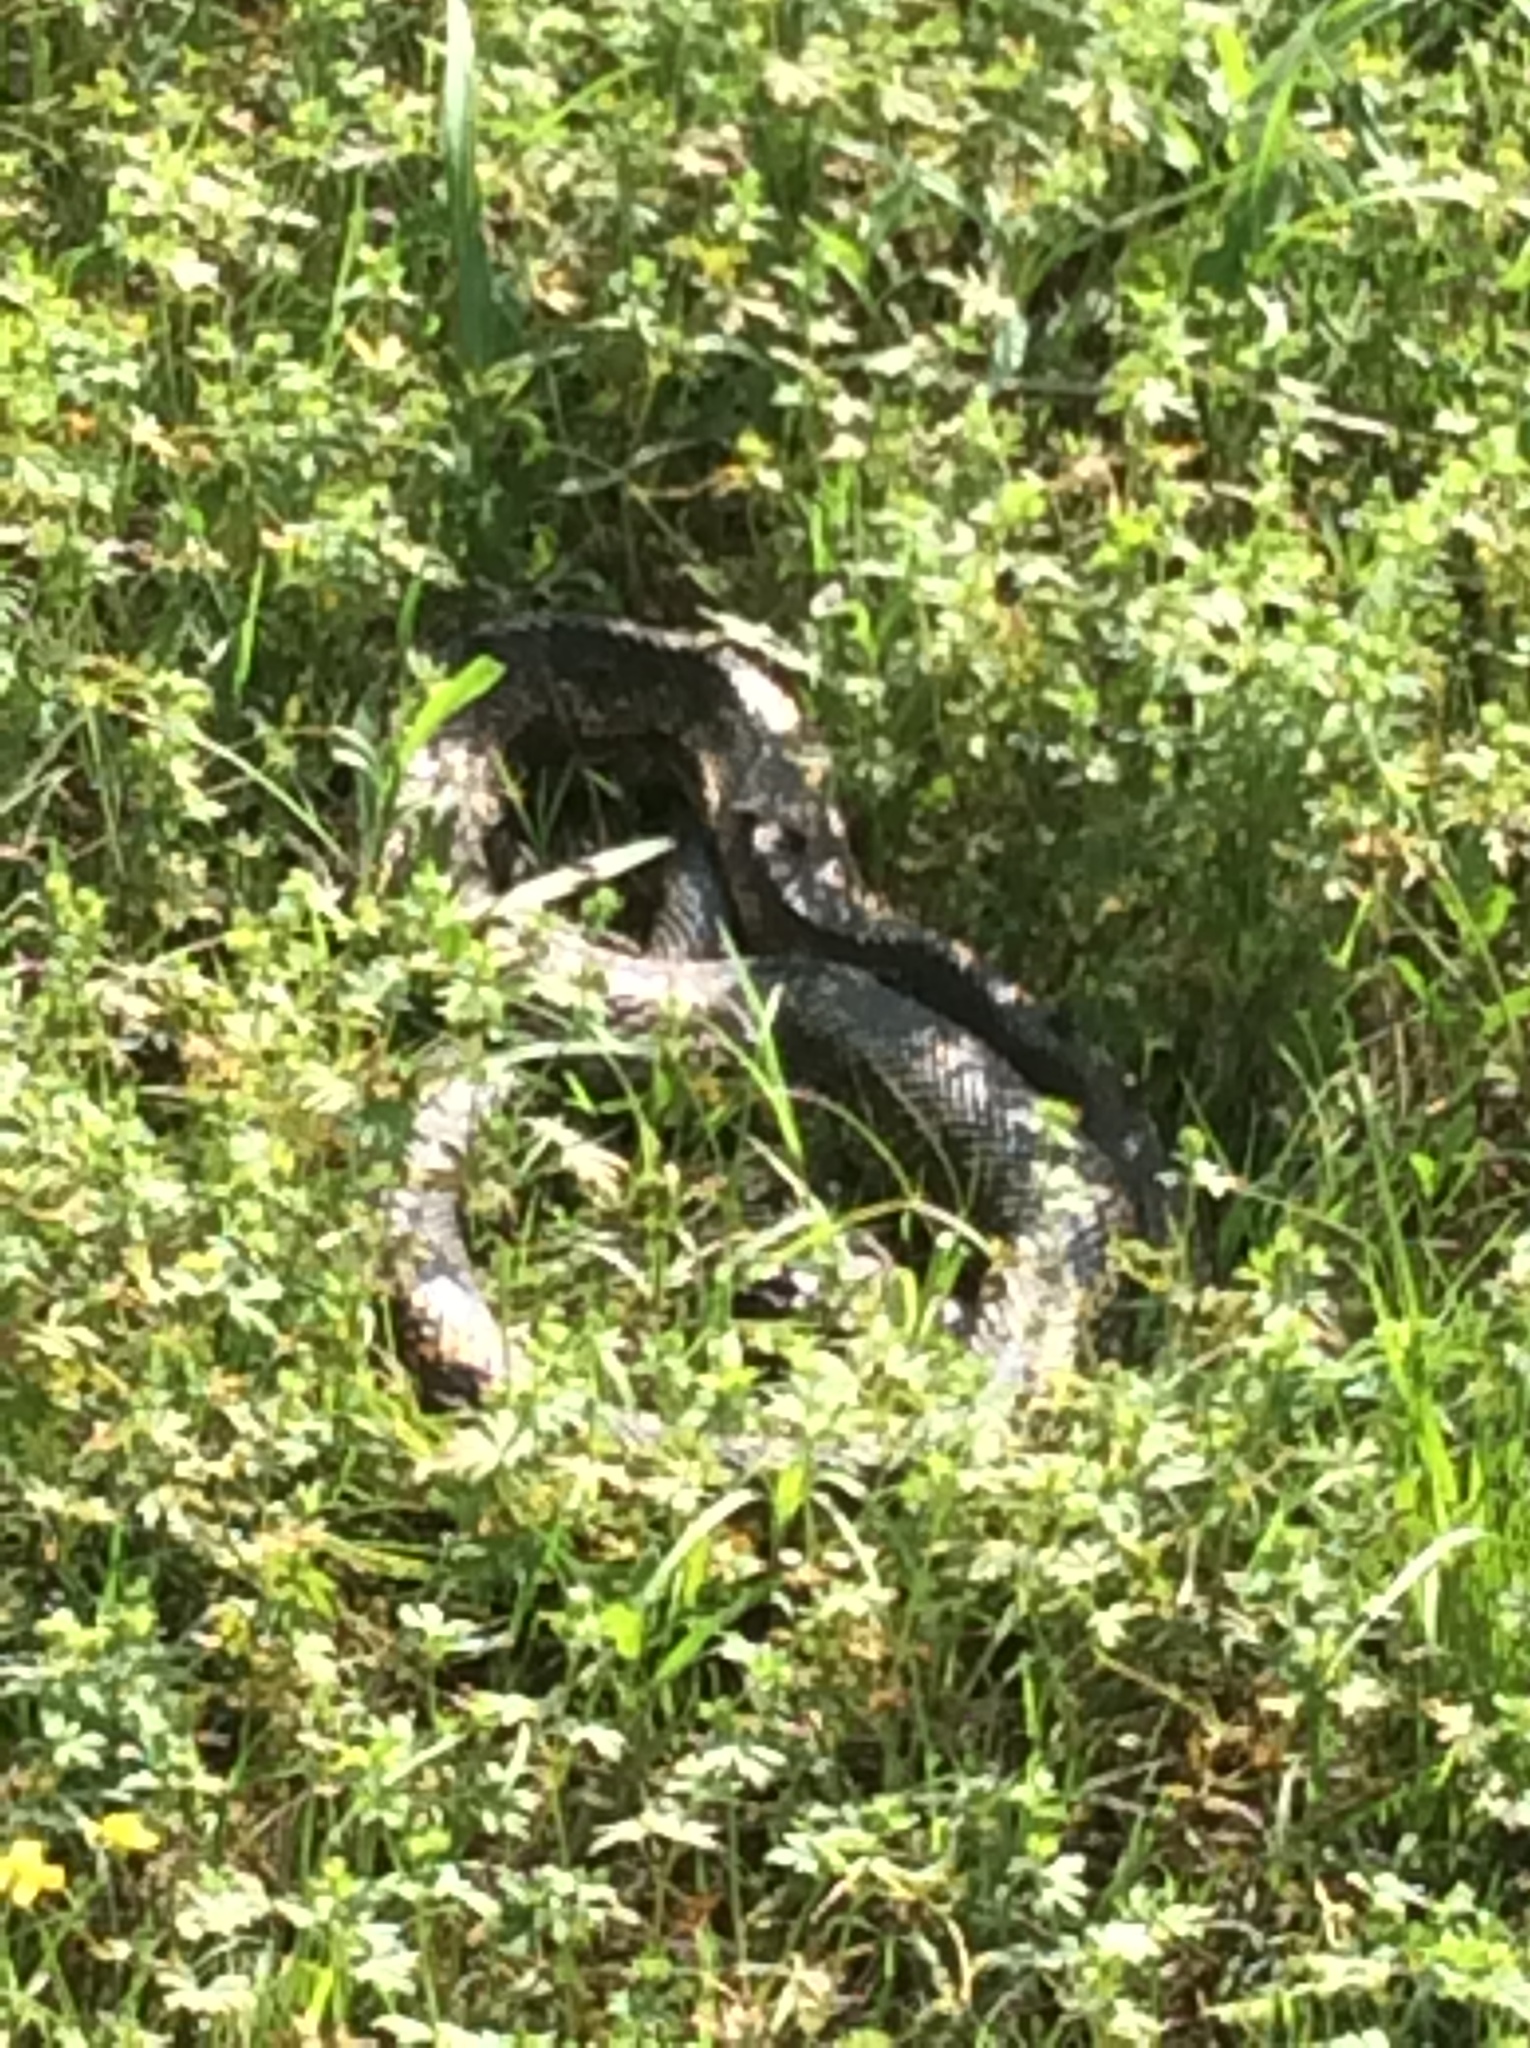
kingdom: Animalia
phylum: Chordata
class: Squamata
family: Colubridae
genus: Pantherophis
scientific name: Pantherophis obsoletus
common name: Black rat snake
